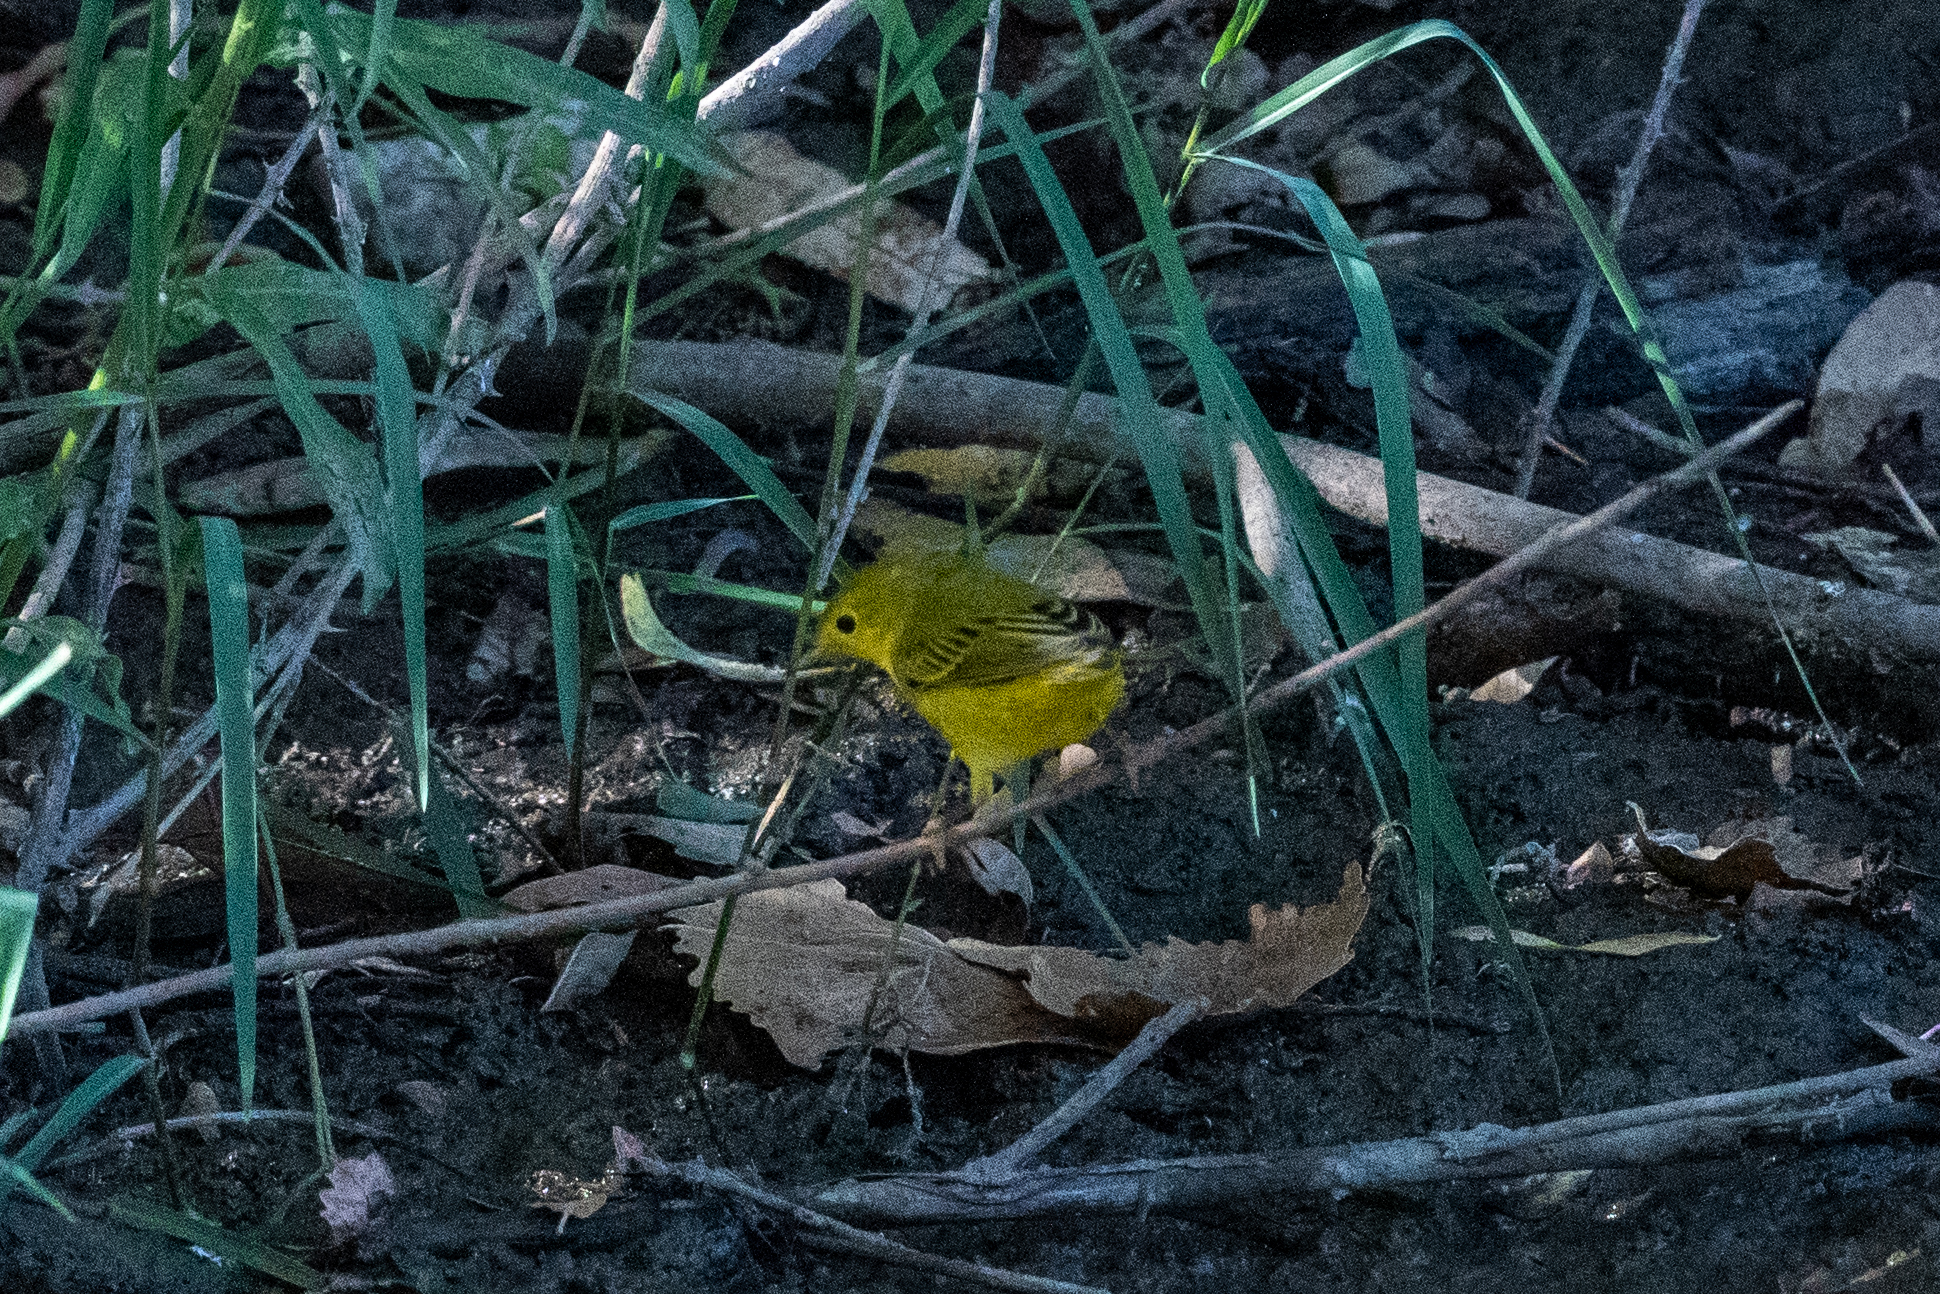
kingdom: Animalia
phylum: Chordata
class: Aves
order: Passeriformes
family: Parulidae
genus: Setophaga
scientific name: Setophaga petechia
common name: Yellow warbler
